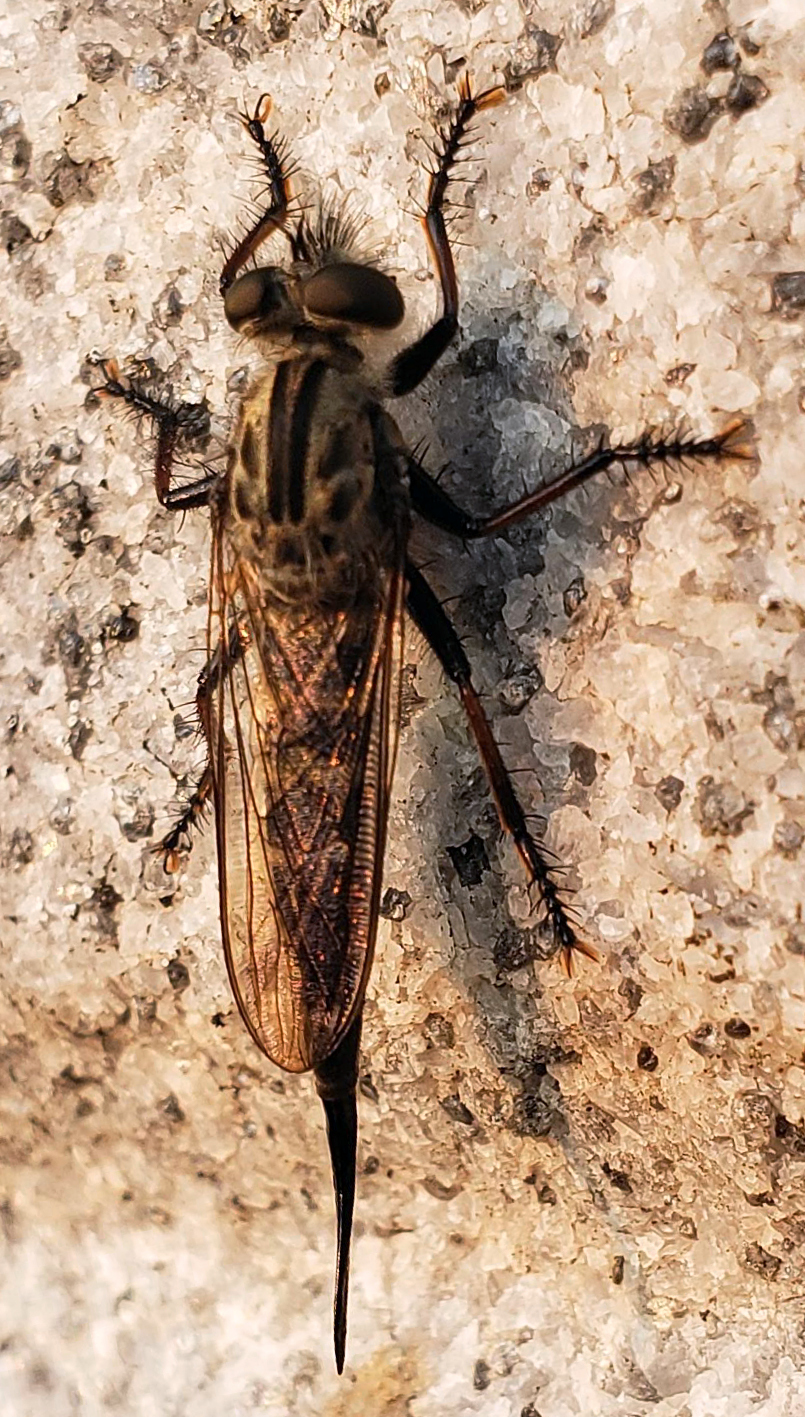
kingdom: Animalia
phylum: Arthropoda
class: Insecta
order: Diptera
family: Asilidae
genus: Efferia
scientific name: Efferia aestuans
